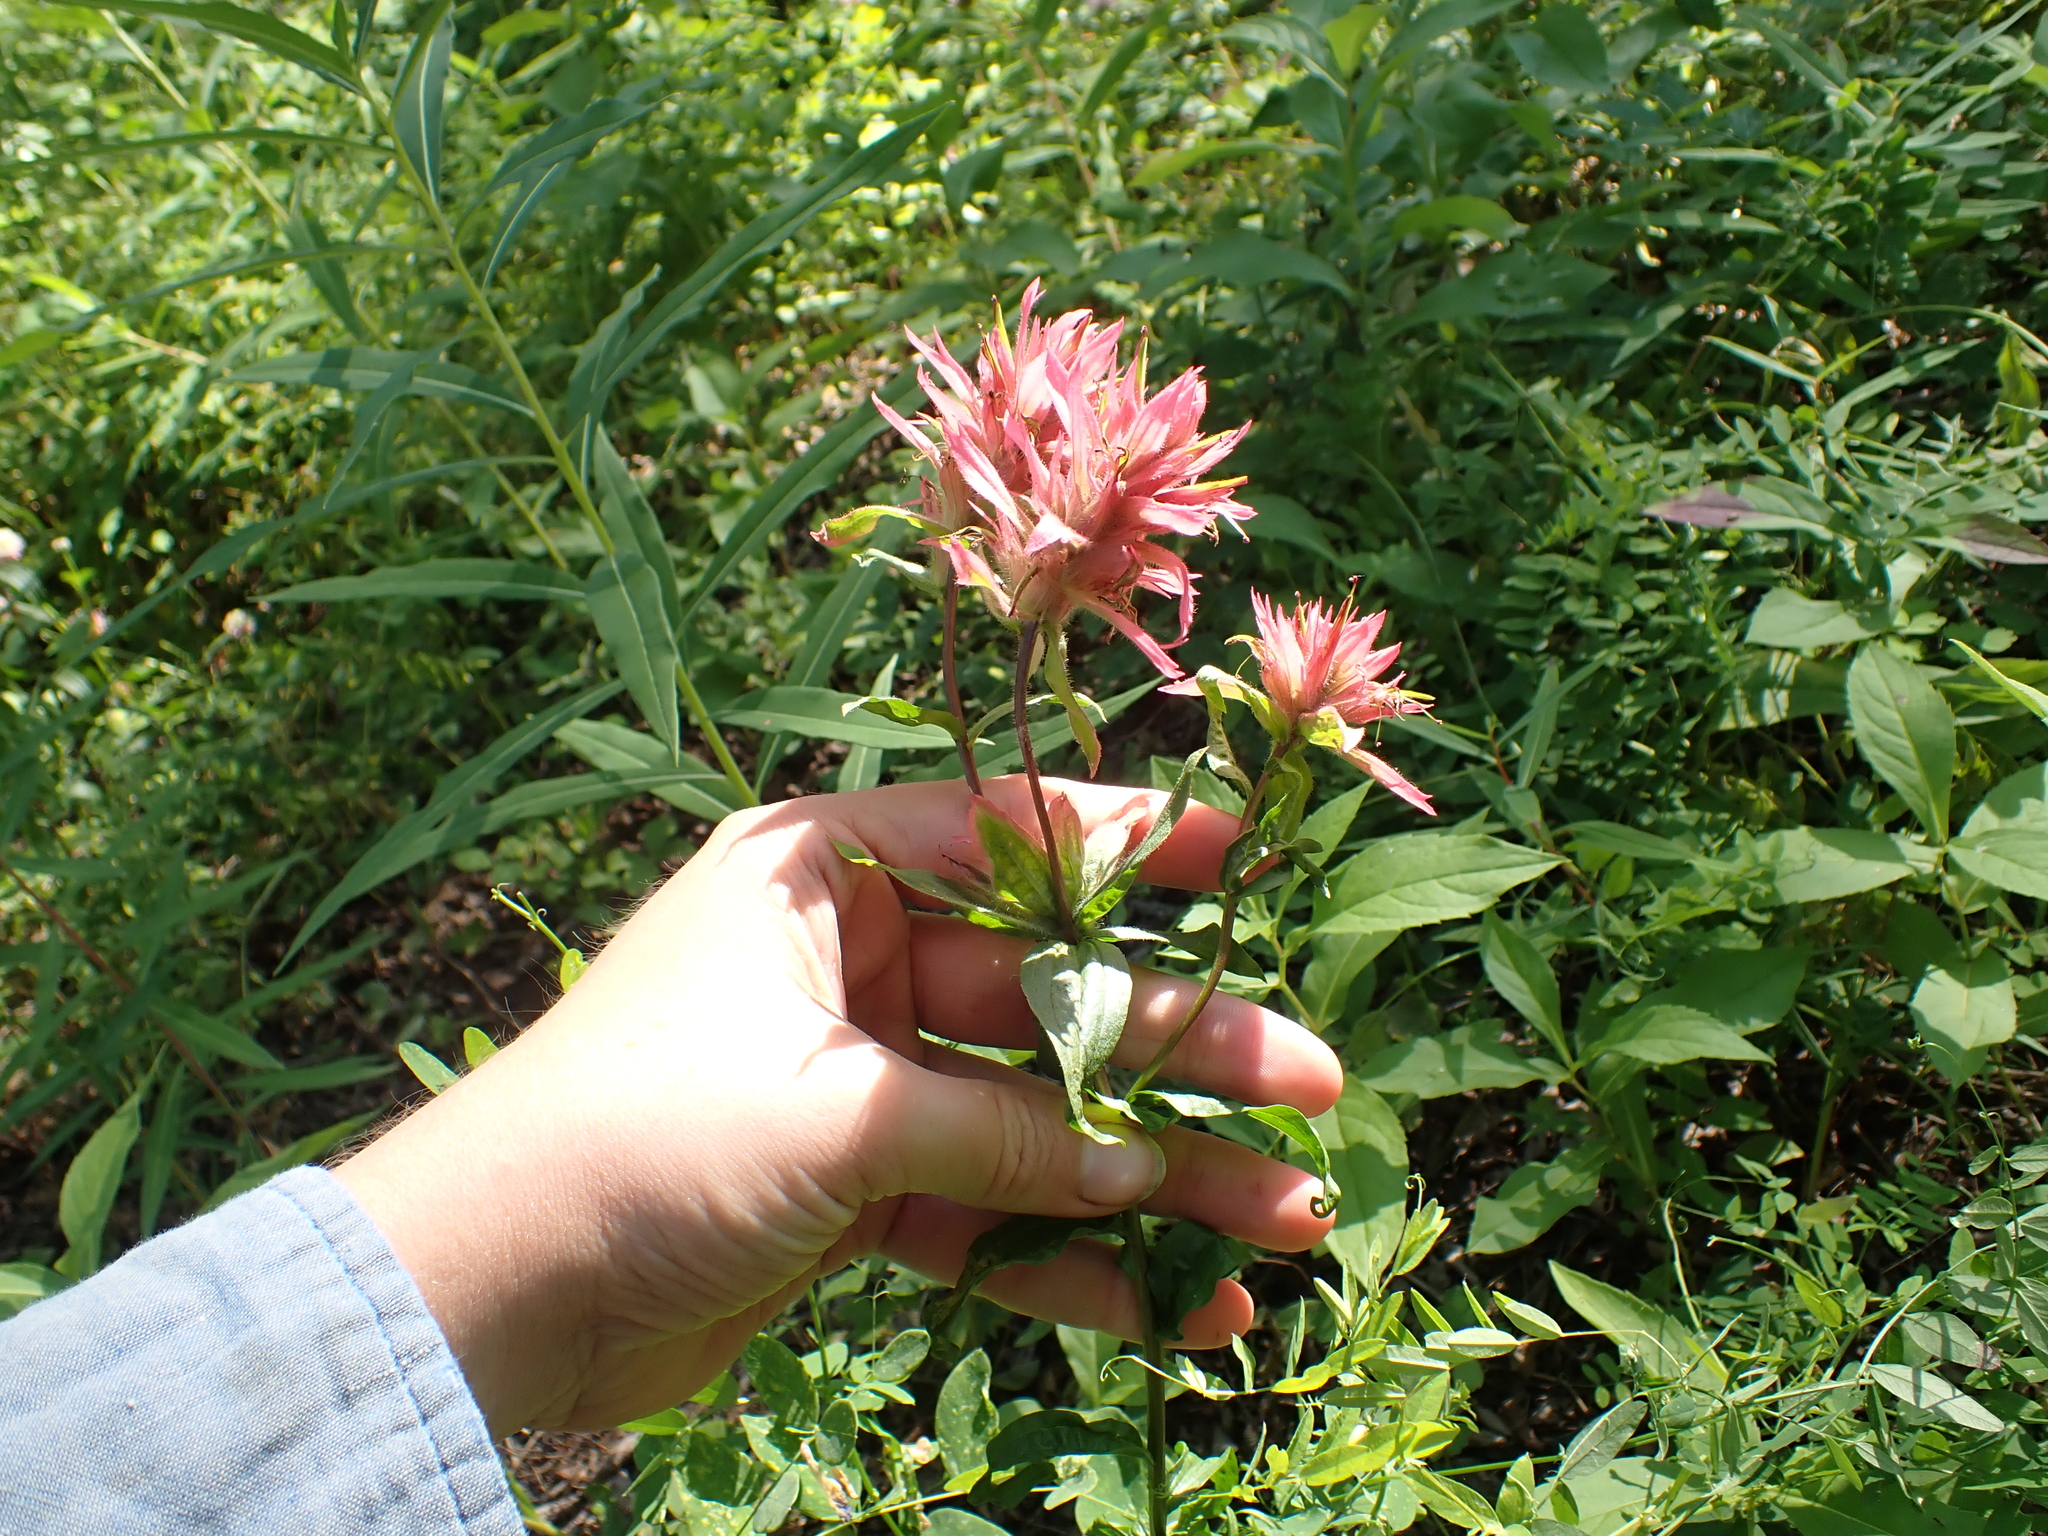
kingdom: Plantae
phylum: Tracheophyta
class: Magnoliopsida
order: Lamiales
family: Orobanchaceae
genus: Castilleja
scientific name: Castilleja miniata
